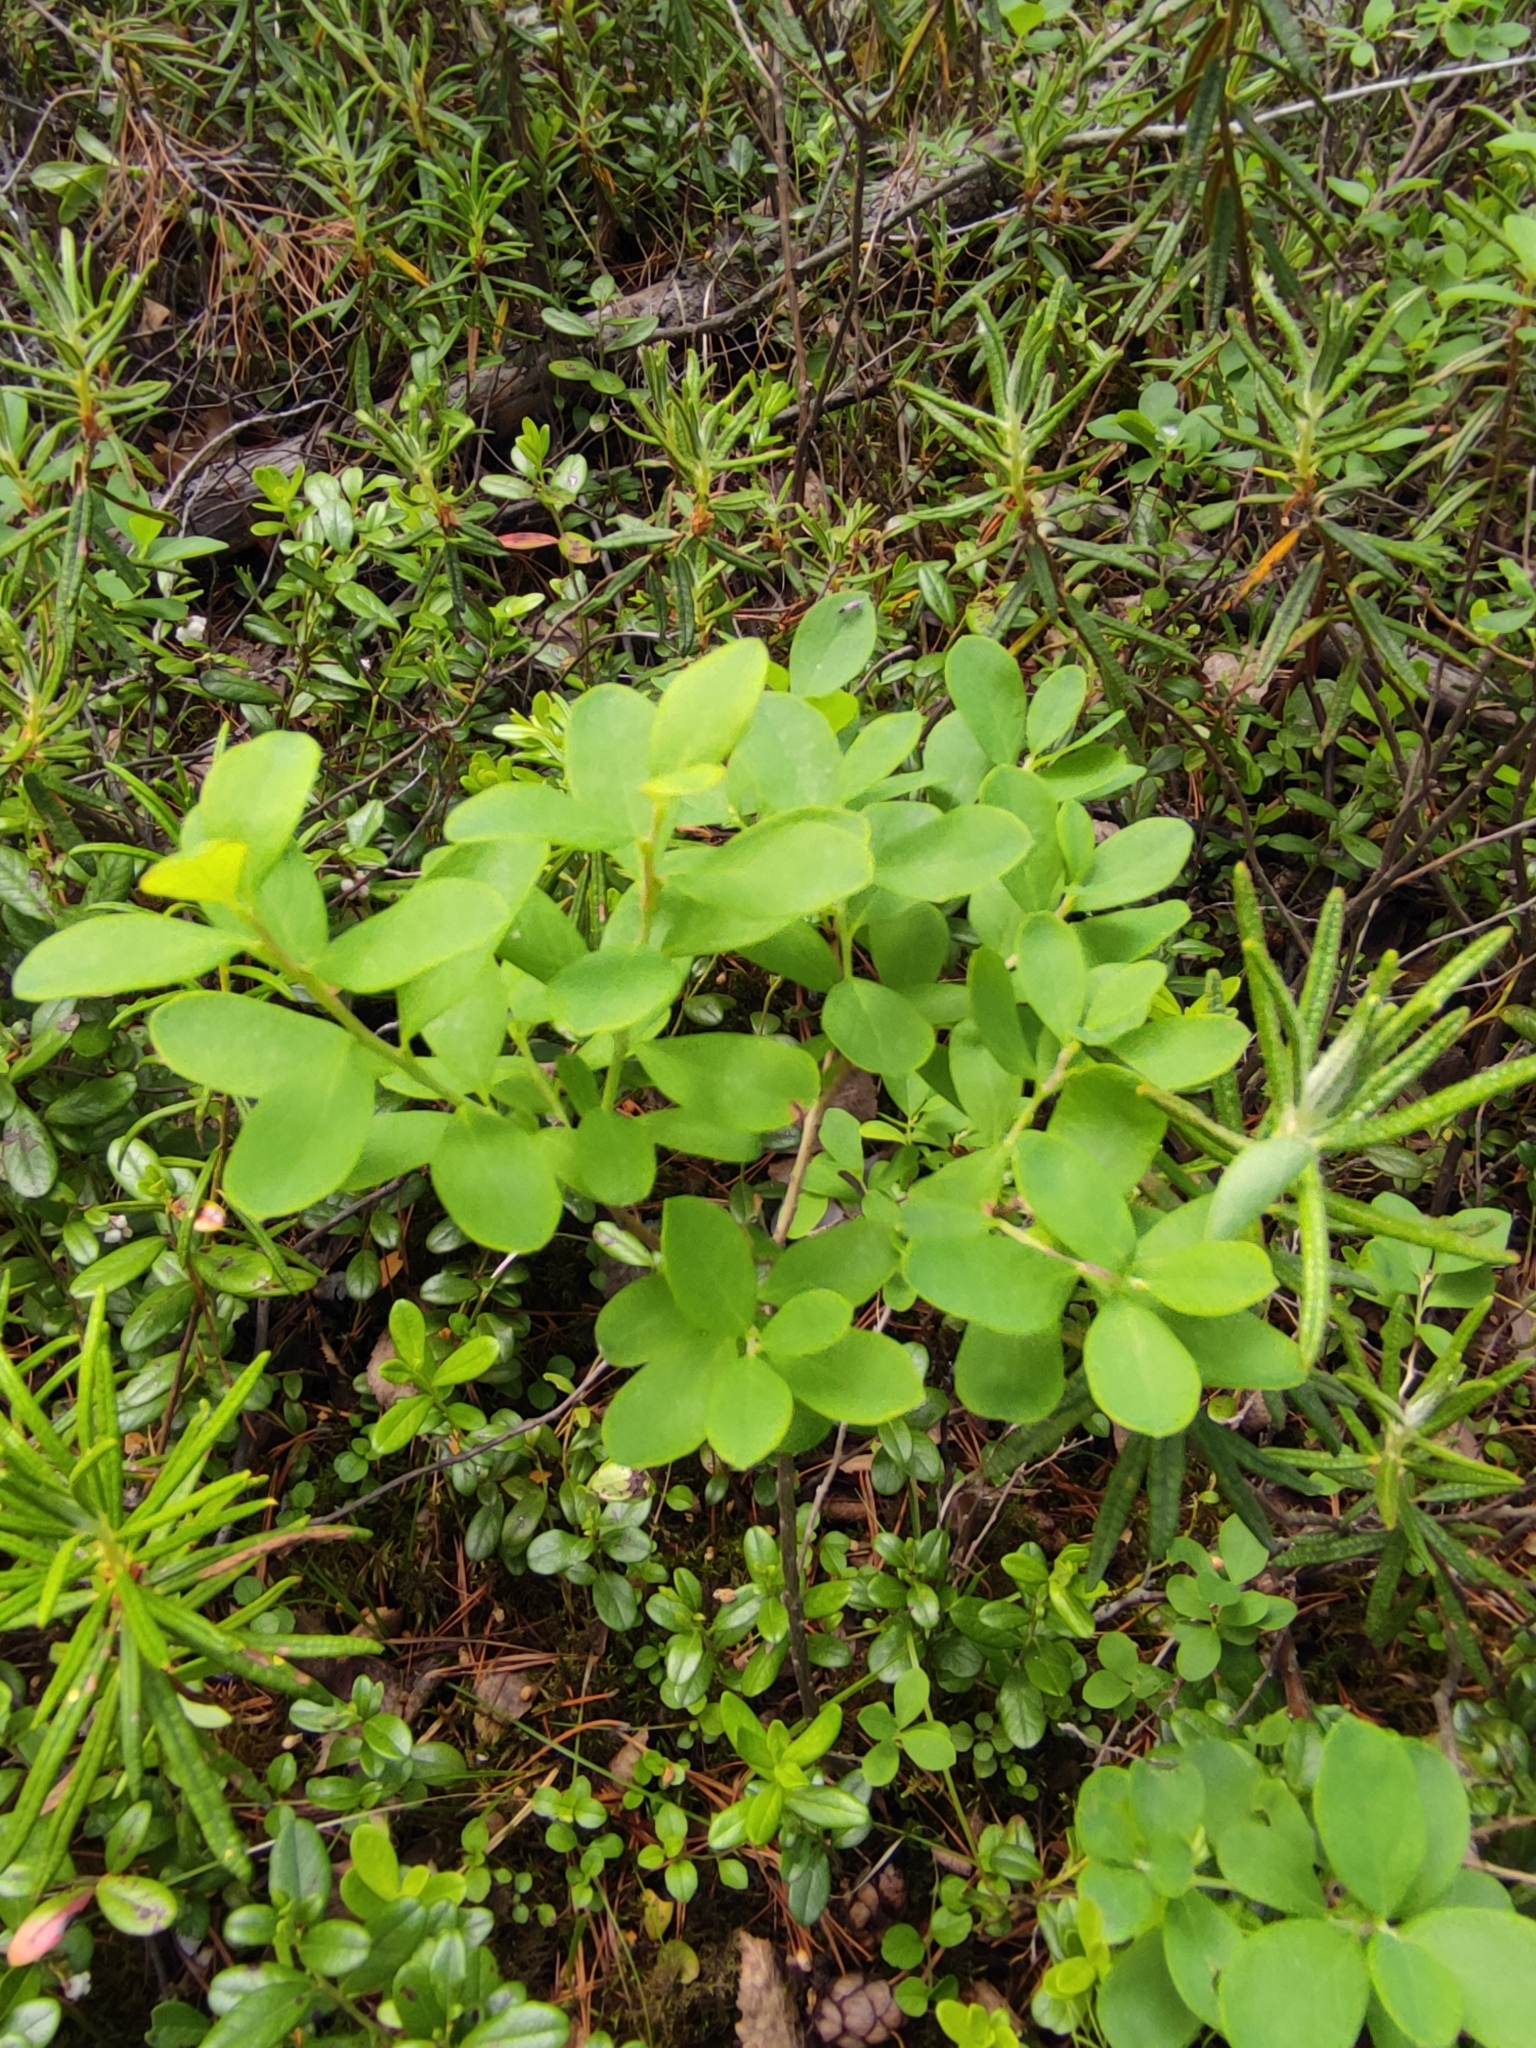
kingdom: Plantae
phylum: Tracheophyta
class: Magnoliopsida
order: Ericales
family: Ericaceae
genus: Vaccinium
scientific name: Vaccinium uliginosum
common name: Bog bilberry
